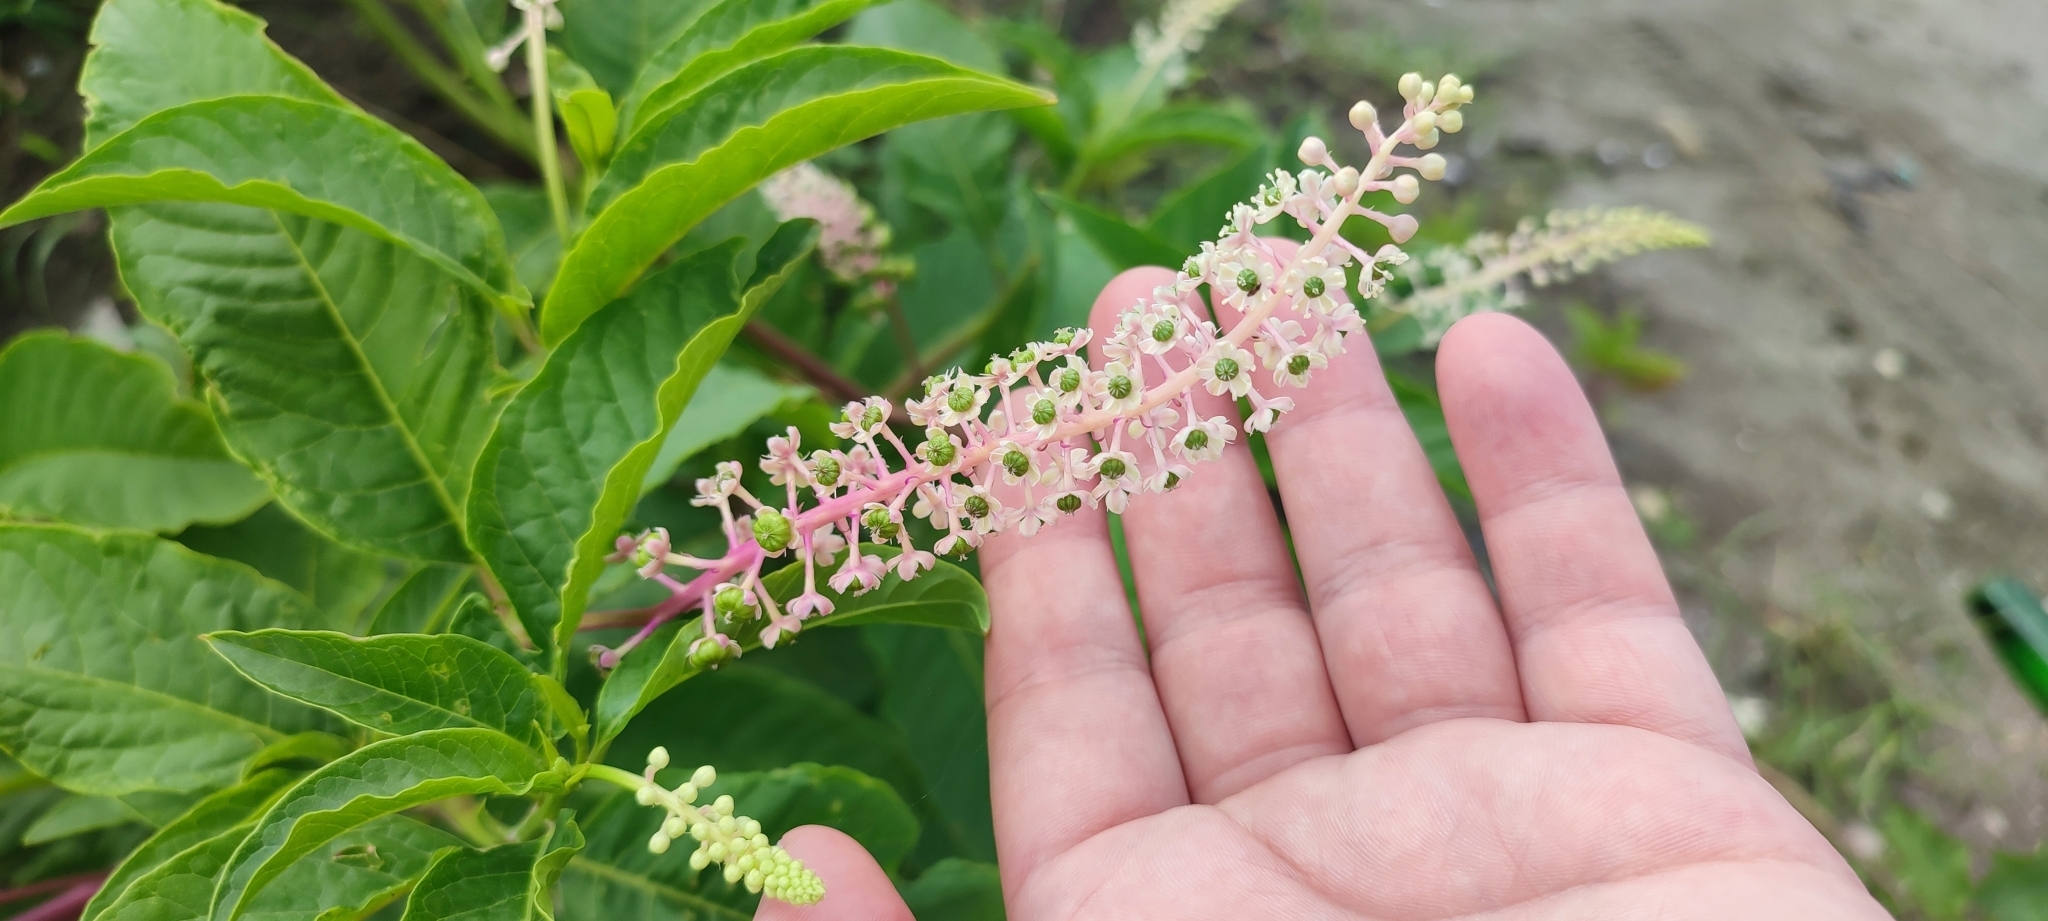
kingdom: Plantae
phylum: Tracheophyta
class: Magnoliopsida
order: Caryophyllales
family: Phytolaccaceae
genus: Phytolacca
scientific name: Phytolacca americana
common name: American pokeweed
